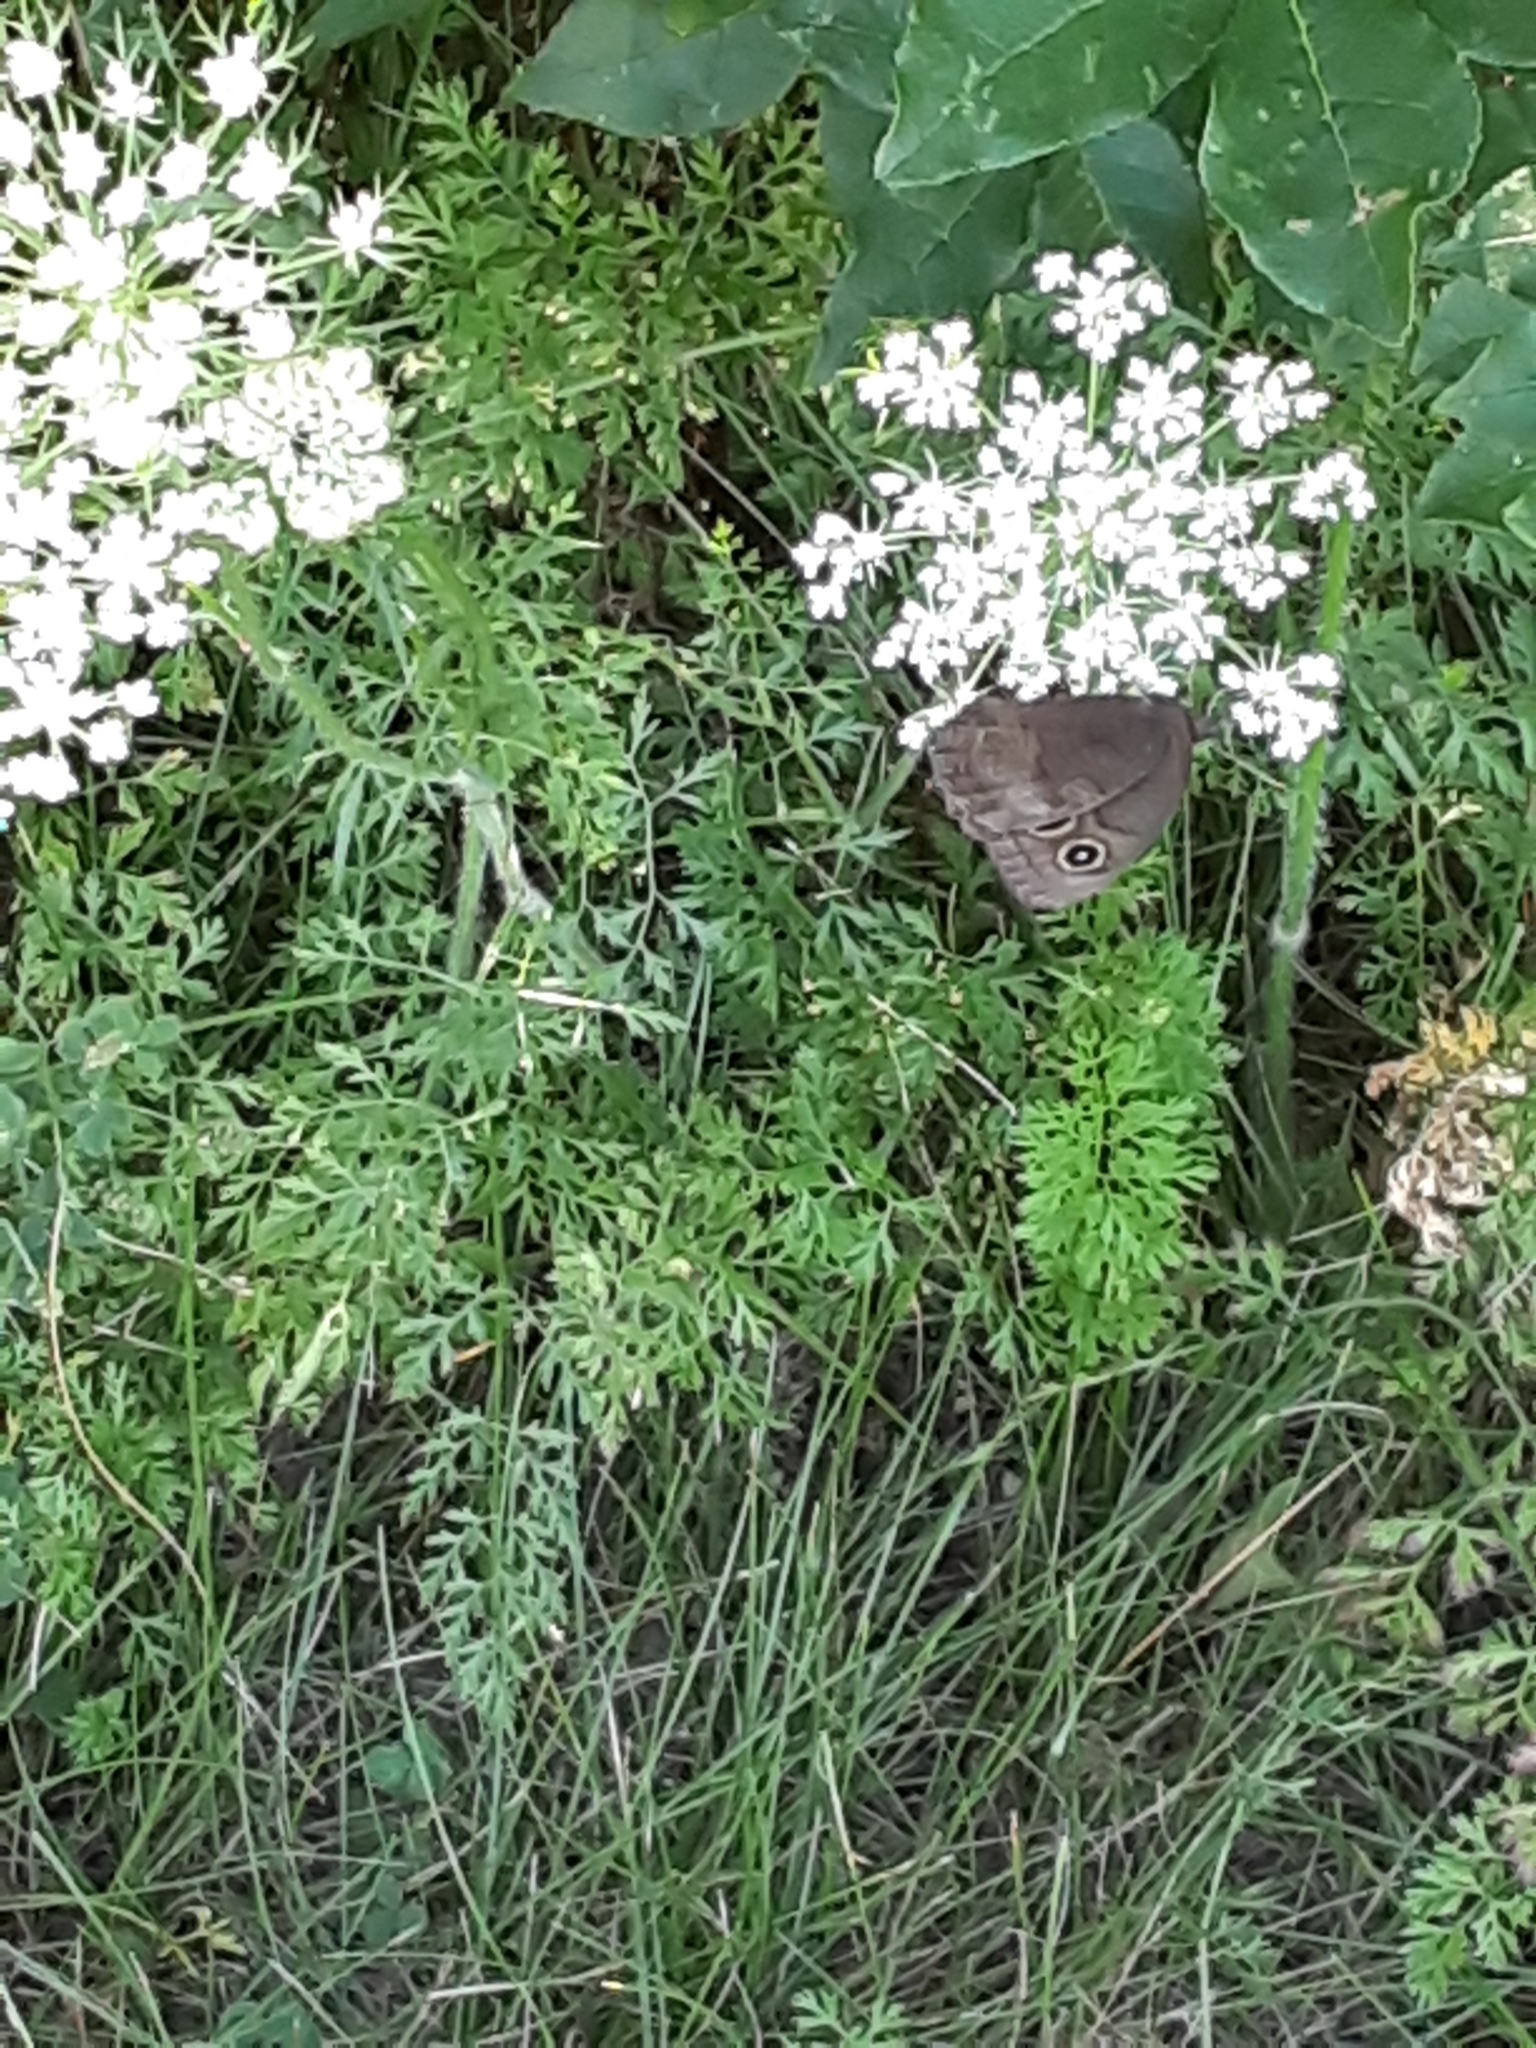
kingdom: Animalia
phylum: Arthropoda
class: Insecta
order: Lepidoptera
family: Nymphalidae
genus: Cercyonis
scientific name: Cercyonis pegala
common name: Common wood-nymph
